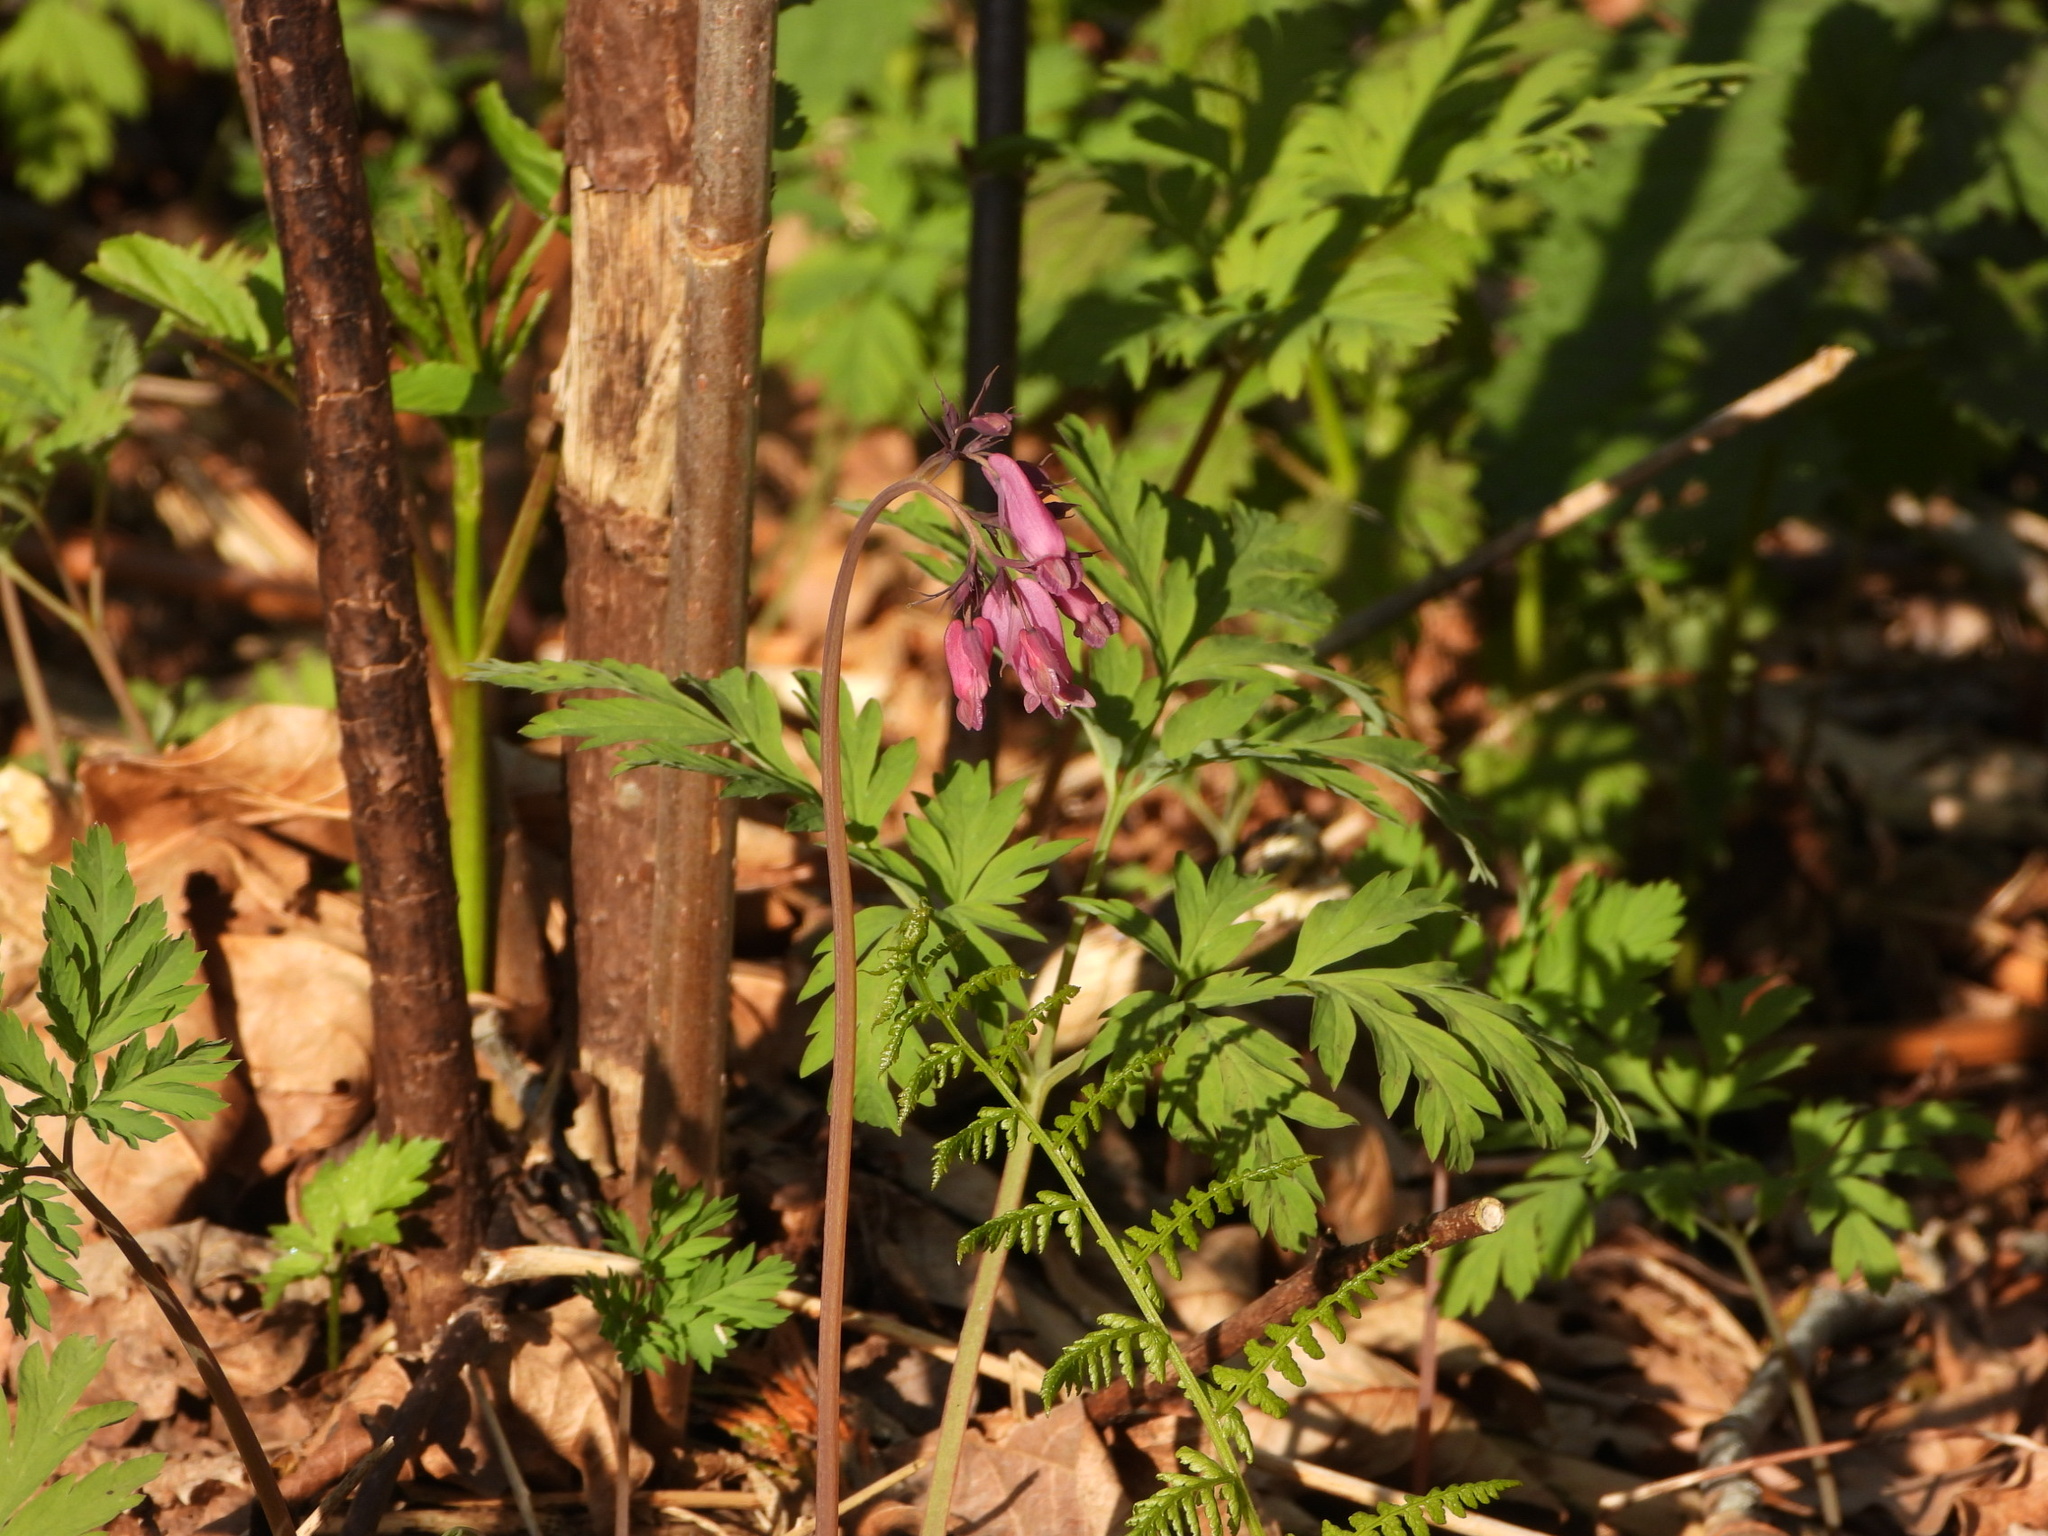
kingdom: Plantae
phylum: Tracheophyta
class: Magnoliopsida
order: Ranunculales
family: Papaveraceae
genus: Dicentra
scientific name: Dicentra formosa
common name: Bleeding-heart
